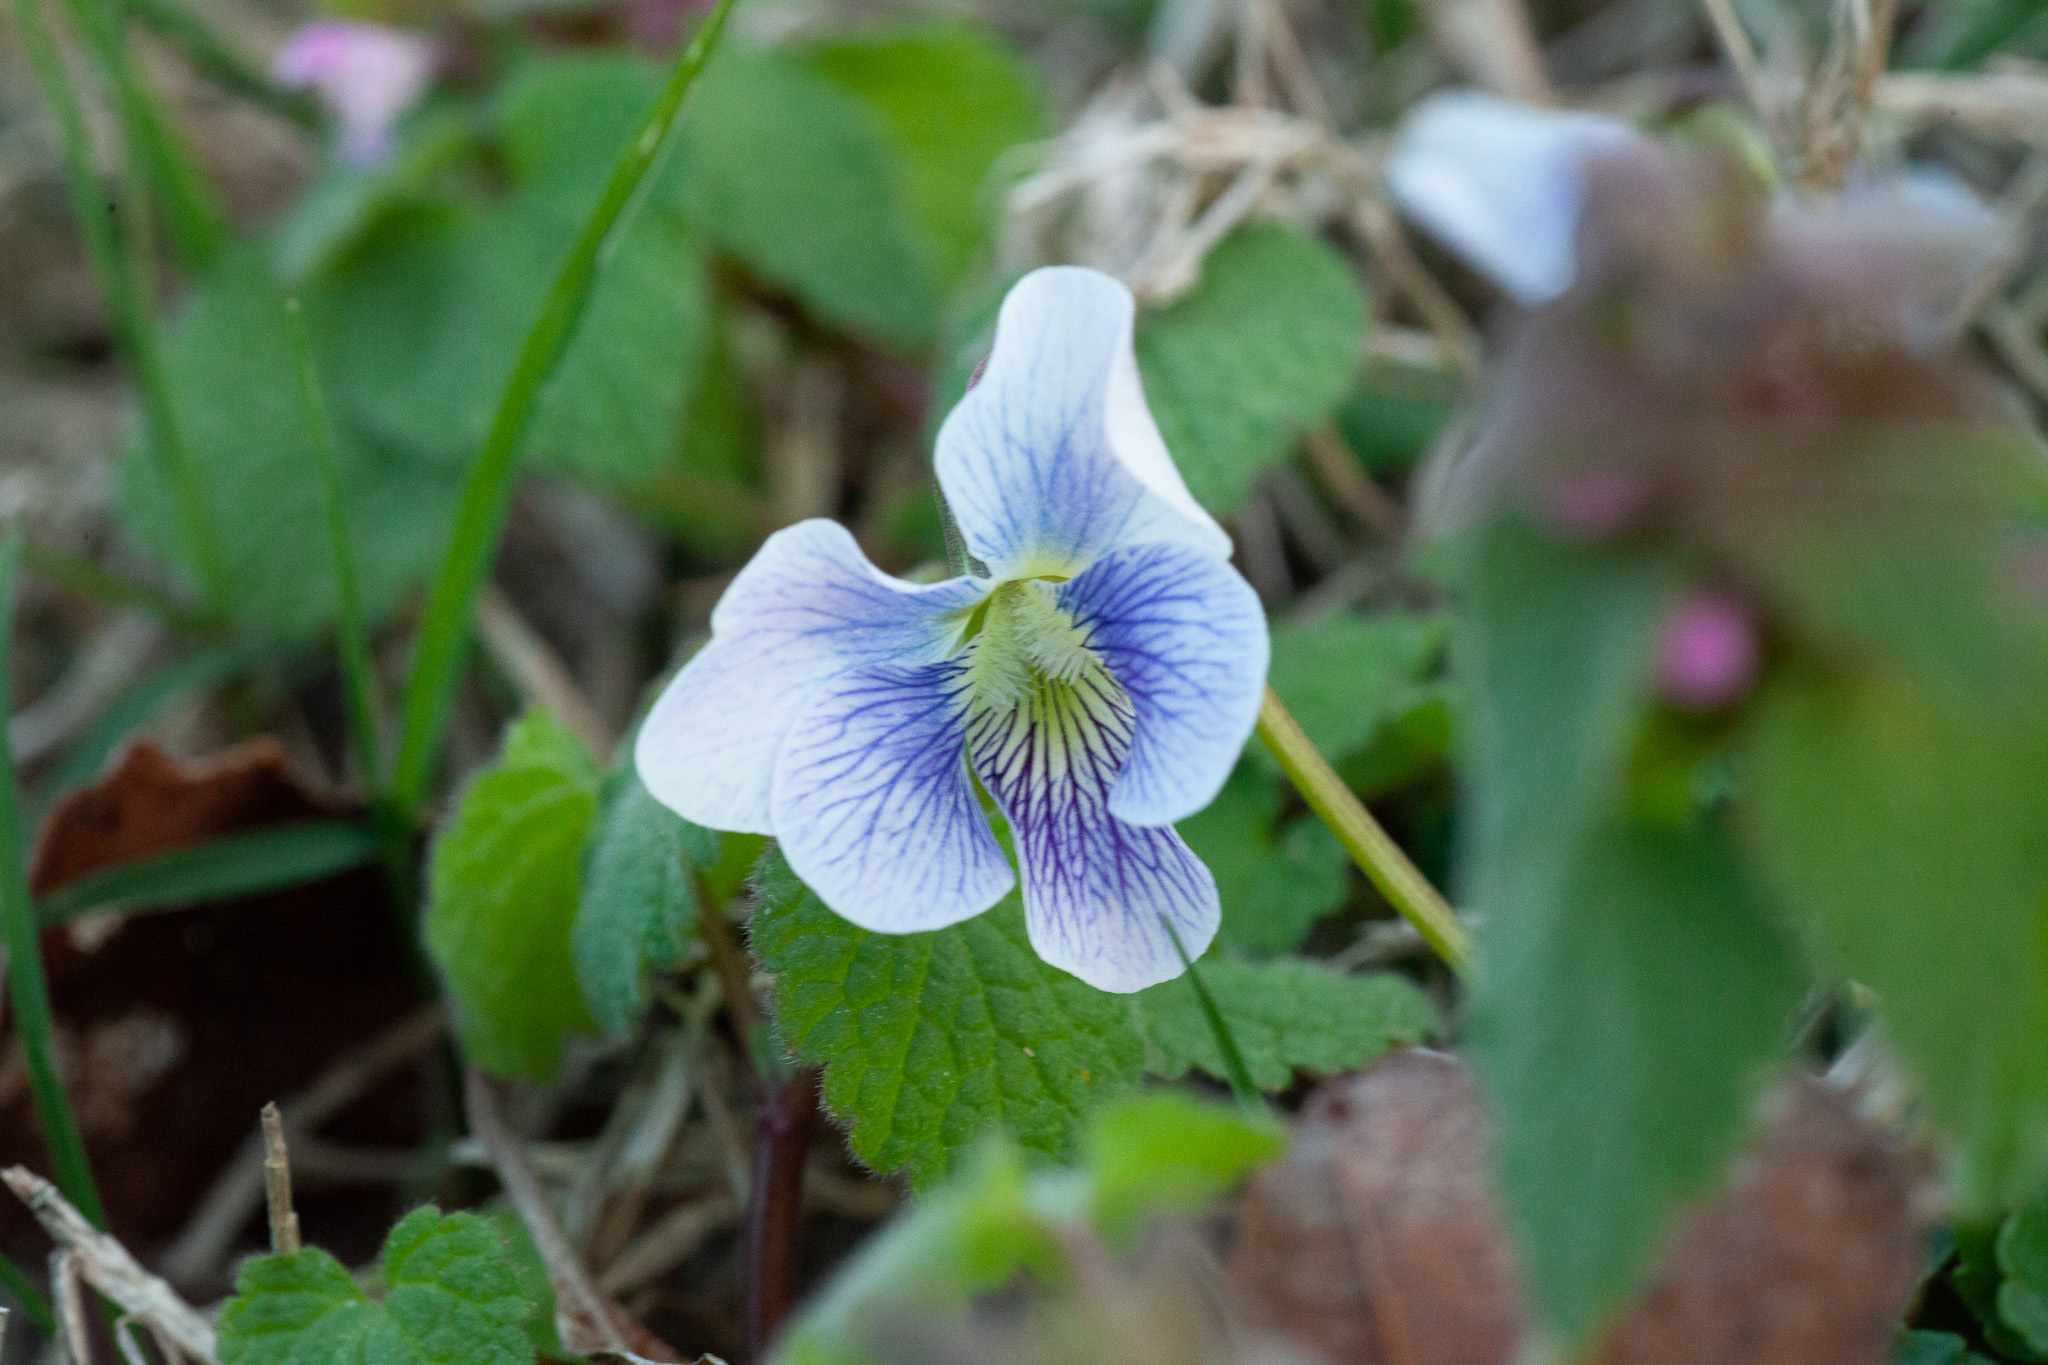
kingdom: Plantae
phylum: Tracheophyta
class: Magnoliopsida
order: Malpighiales
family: Violaceae
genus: Viola
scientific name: Viola sororia
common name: Dooryard violet
